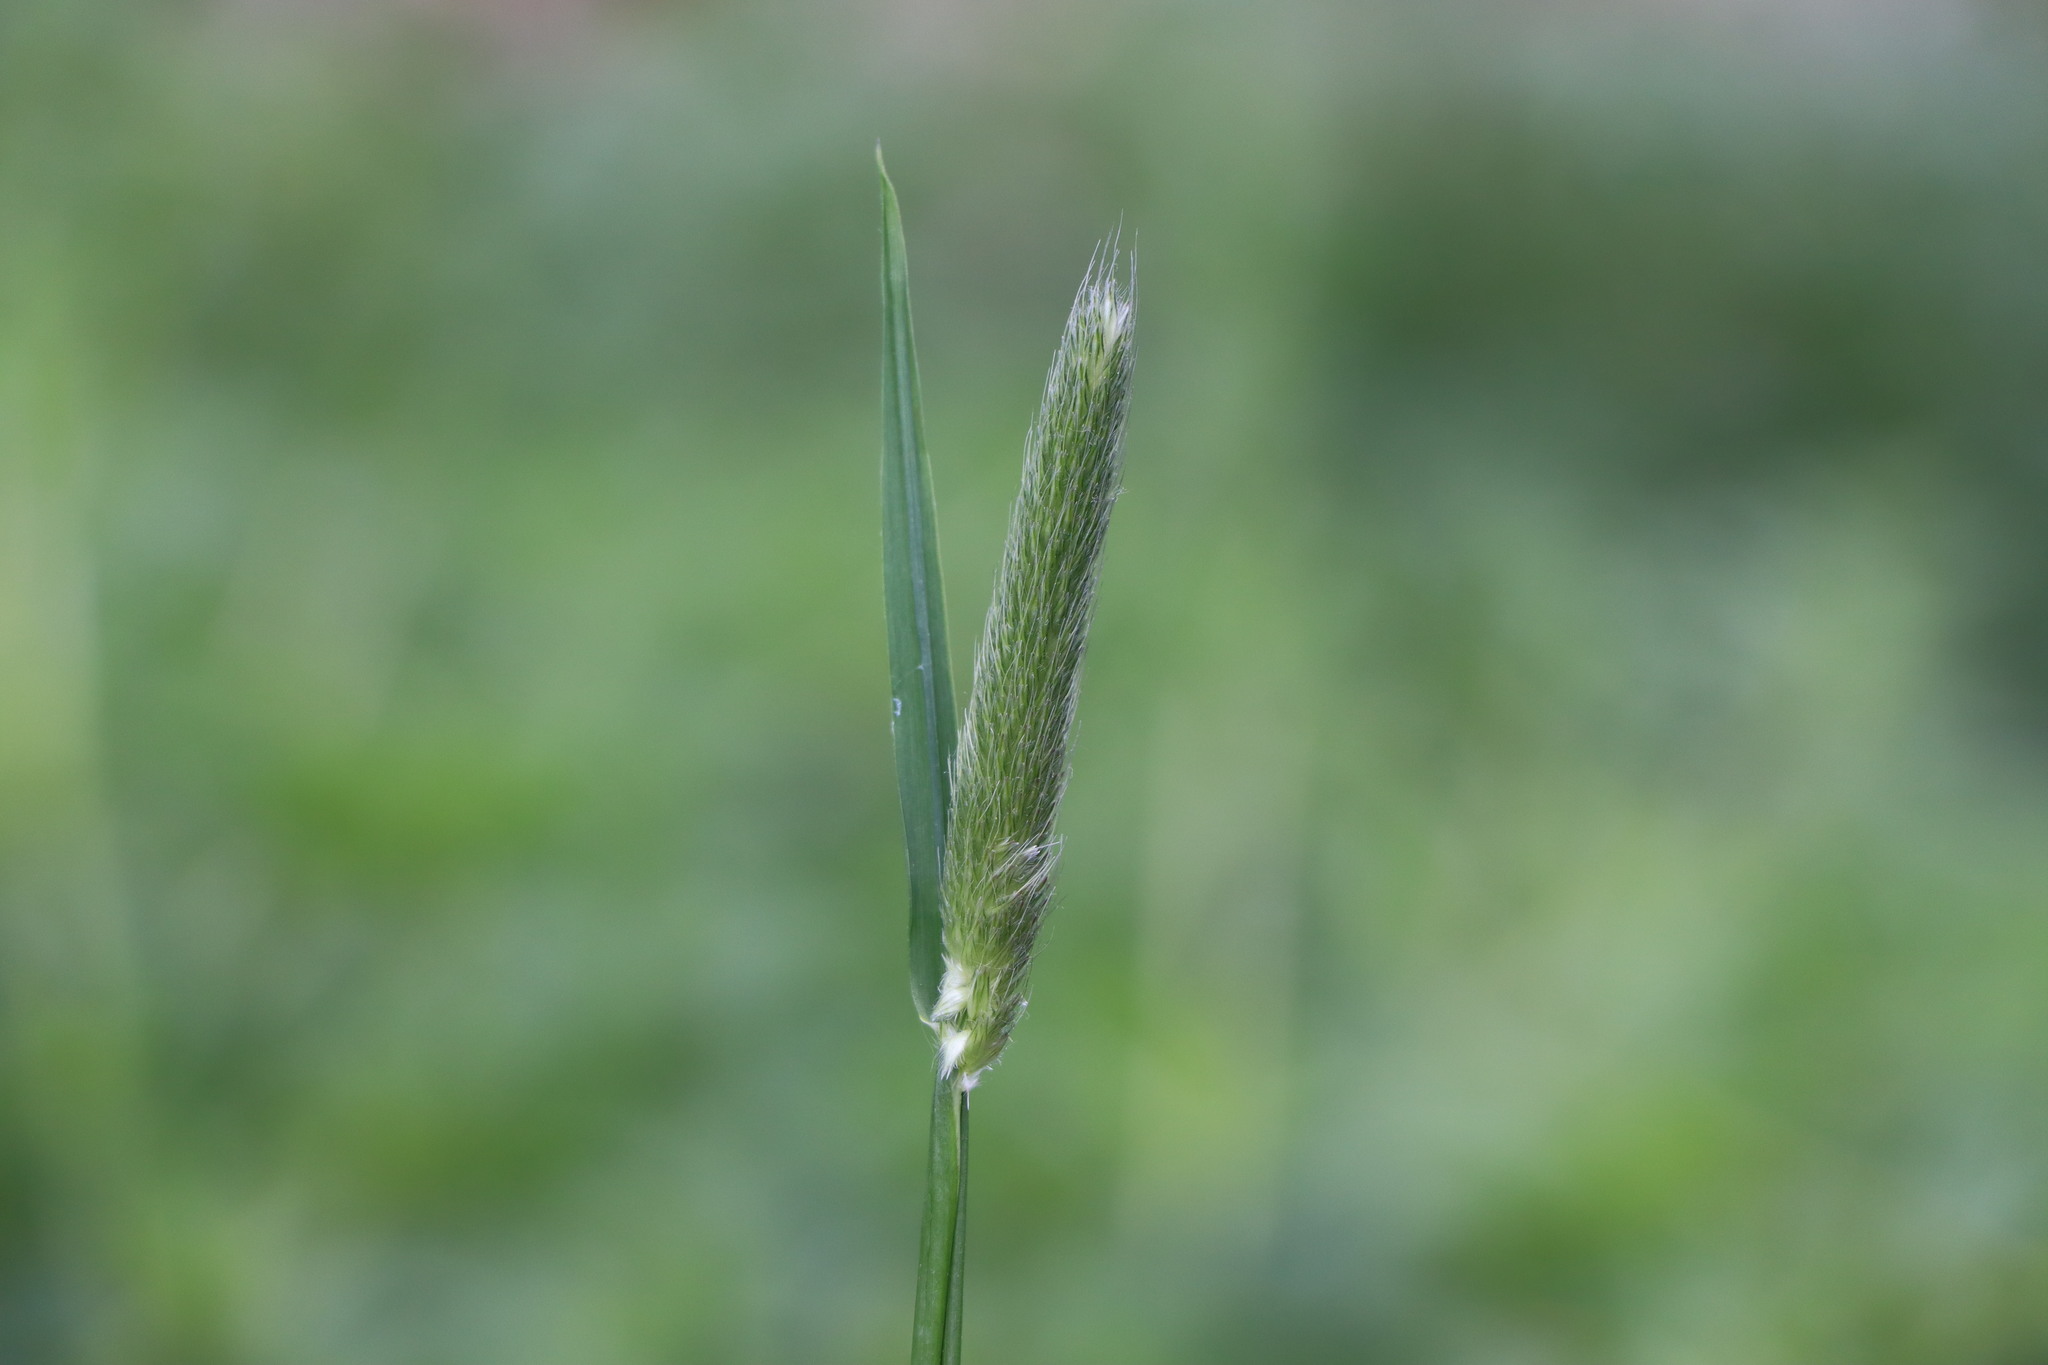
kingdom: Plantae
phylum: Tracheophyta
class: Liliopsida
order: Poales
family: Poaceae
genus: Alopecurus
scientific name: Alopecurus pratensis
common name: Meadow foxtail
